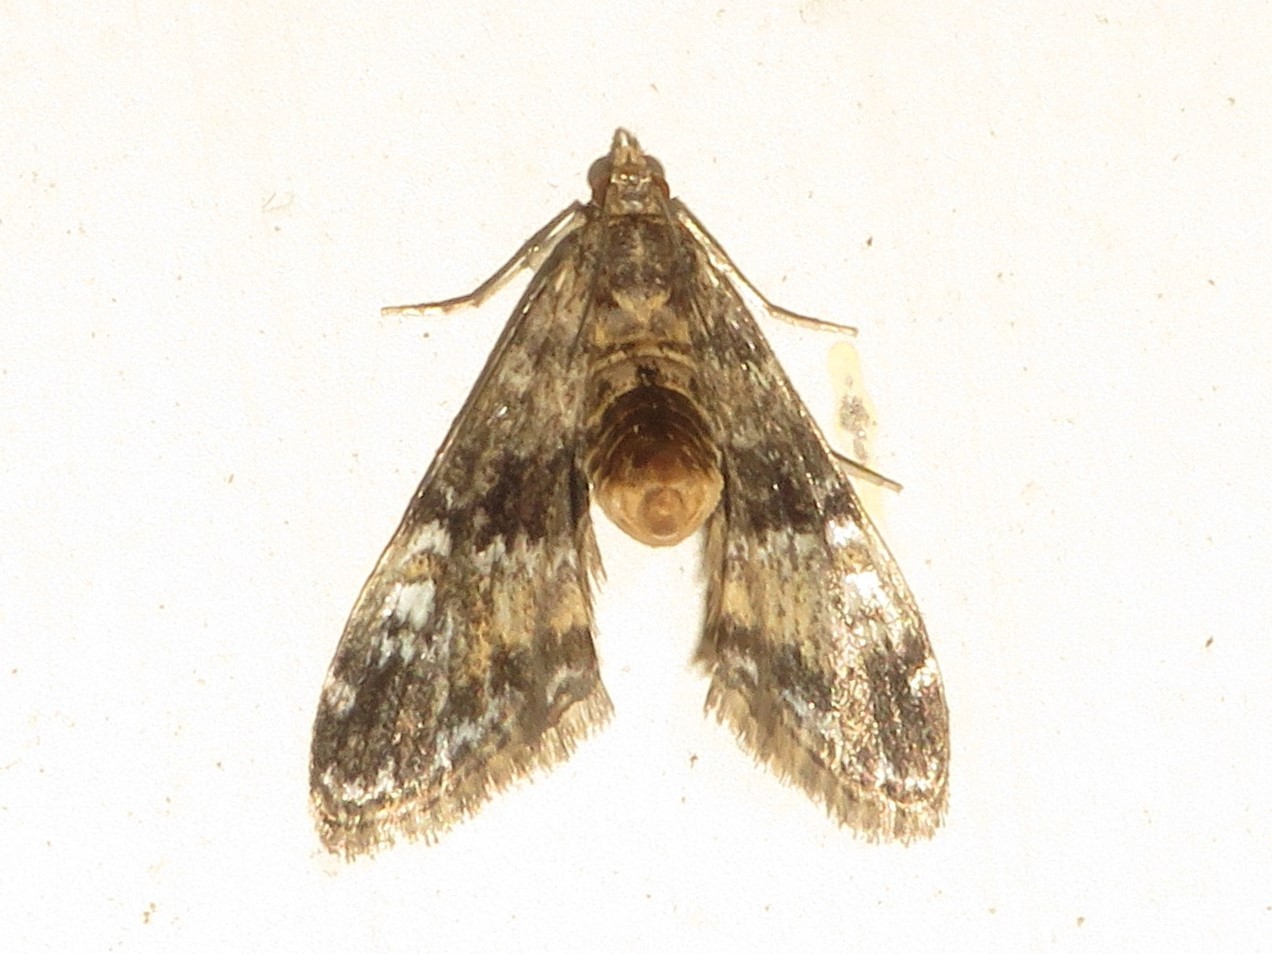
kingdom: Animalia
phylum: Arthropoda
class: Insecta
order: Lepidoptera
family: Crambidae
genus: Elophila
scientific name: Elophila obliteralis
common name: Waterlily leafcutter moth
